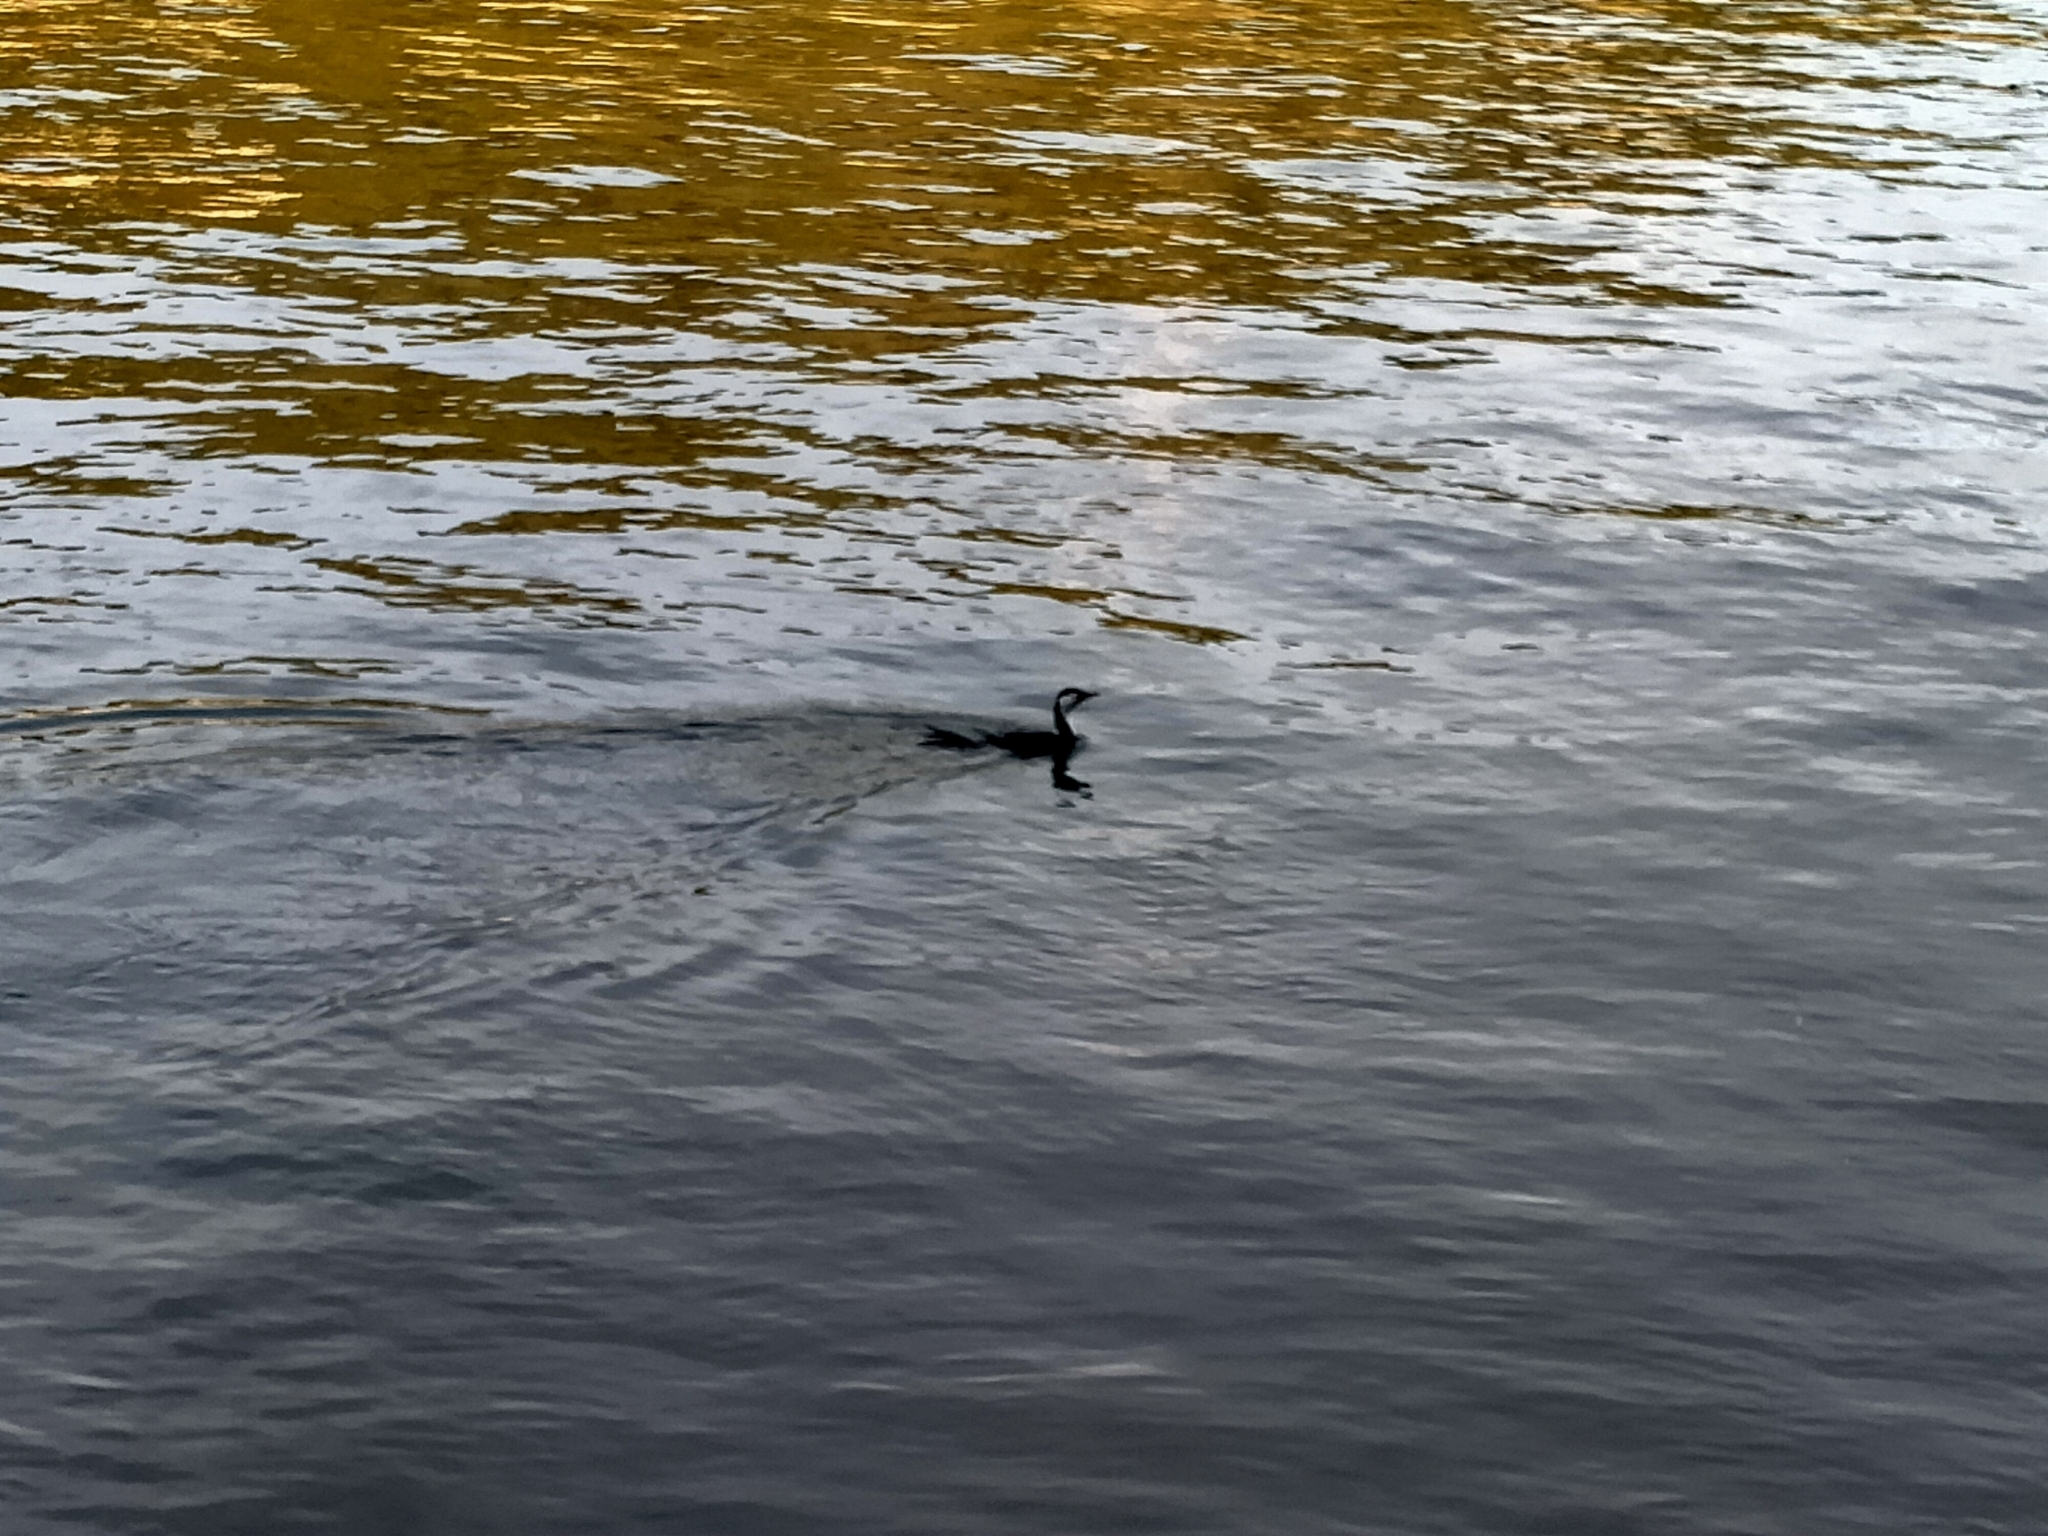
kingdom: Animalia
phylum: Chordata
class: Aves
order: Suliformes
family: Phalacrocoracidae
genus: Microcarbo
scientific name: Microcarbo melanoleucos
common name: Little pied cormorant
